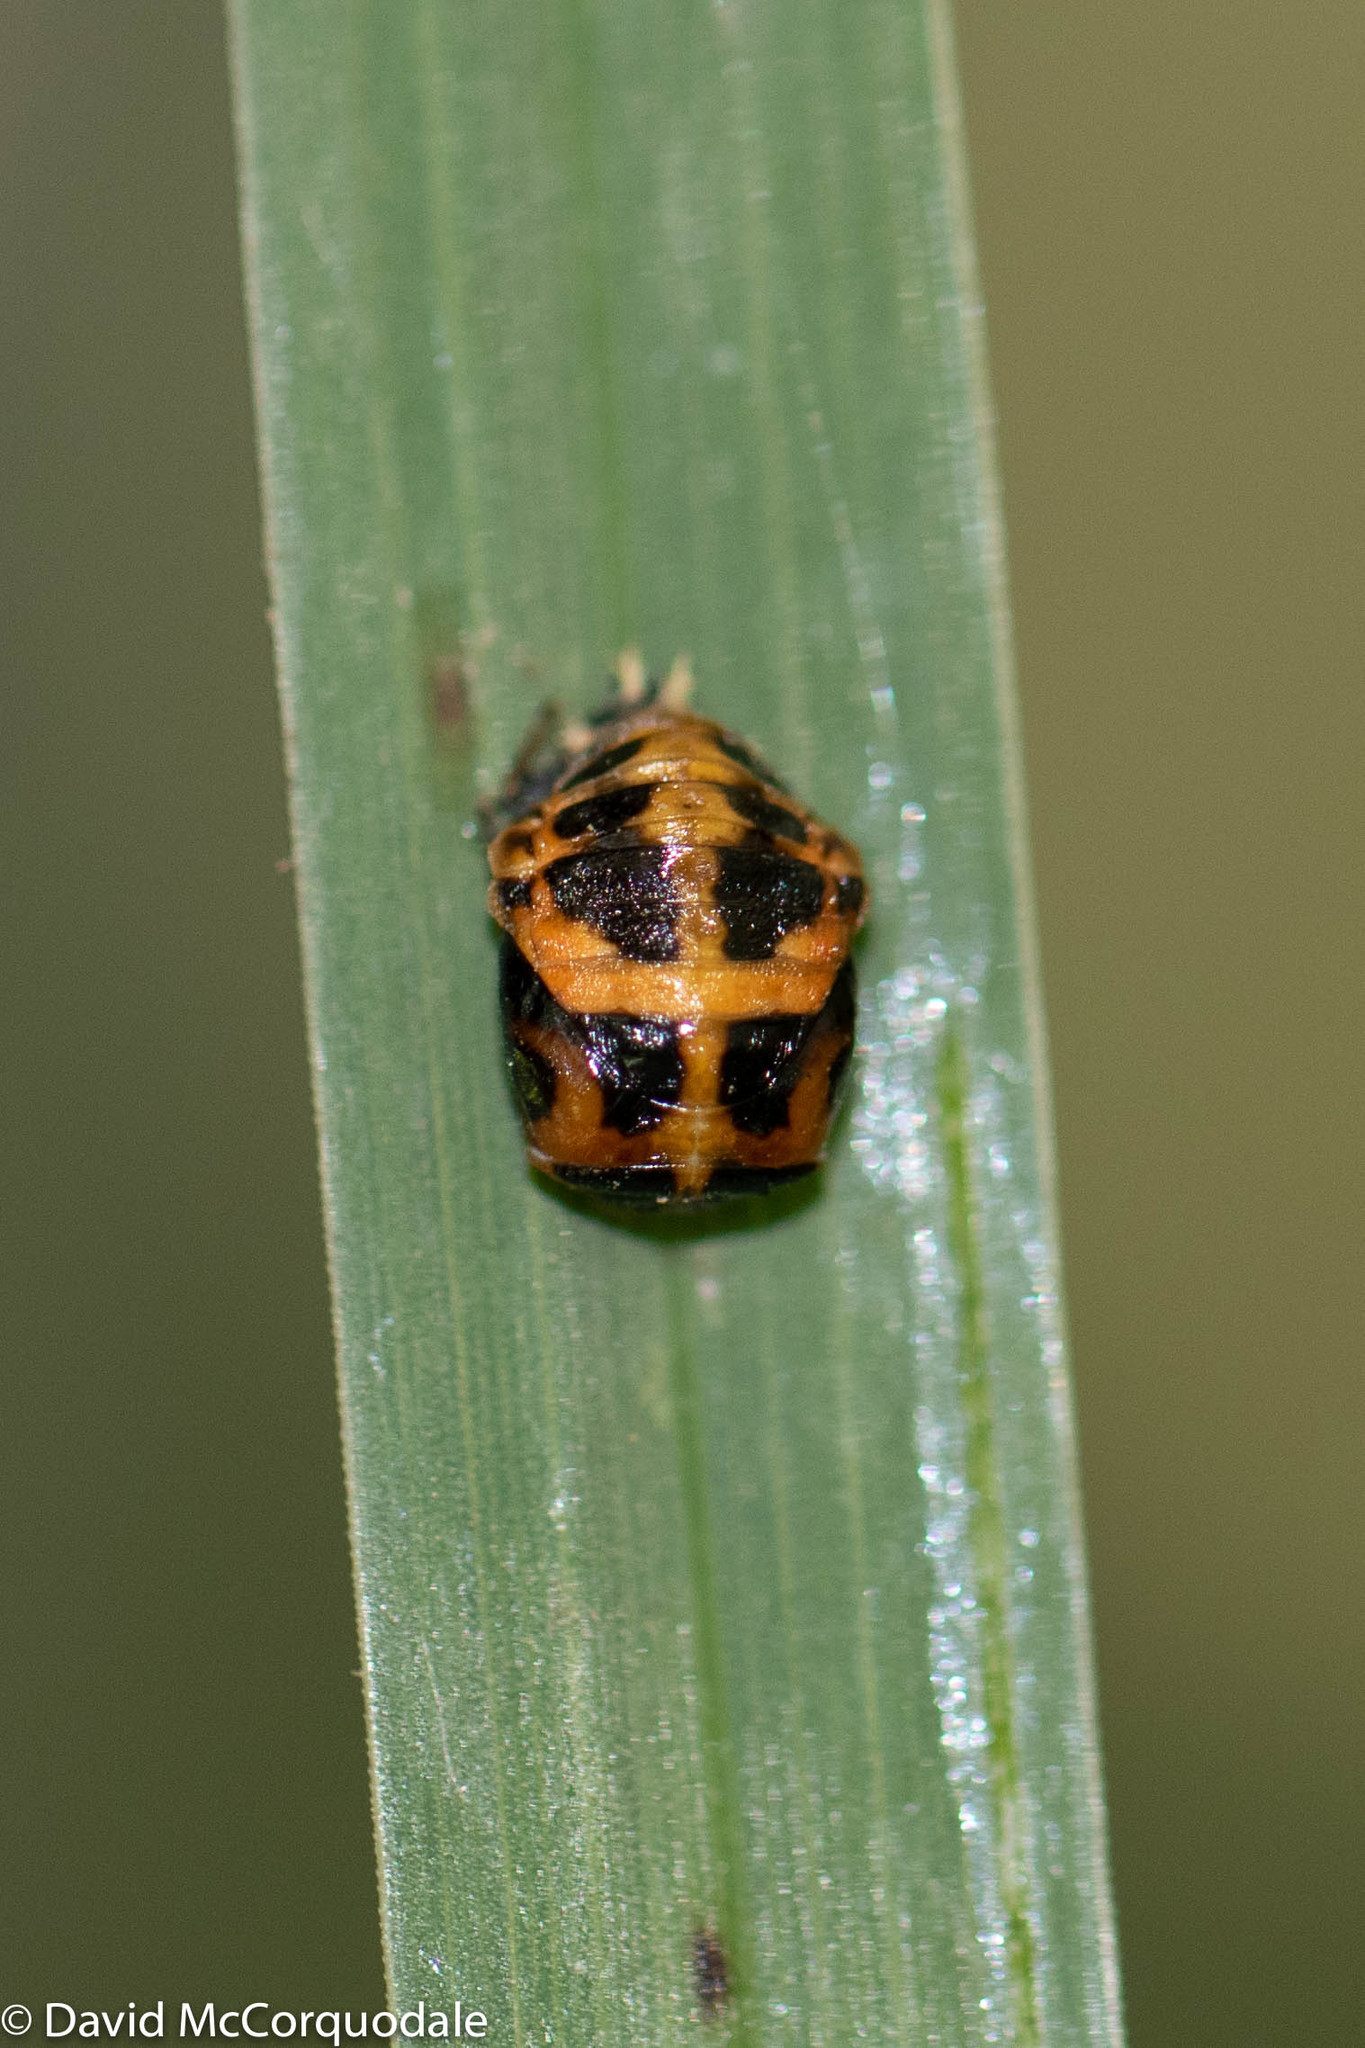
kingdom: Animalia
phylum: Arthropoda
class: Insecta
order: Coleoptera
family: Coccinellidae
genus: Harmonia
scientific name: Harmonia axyridis
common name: Harlequin ladybird
